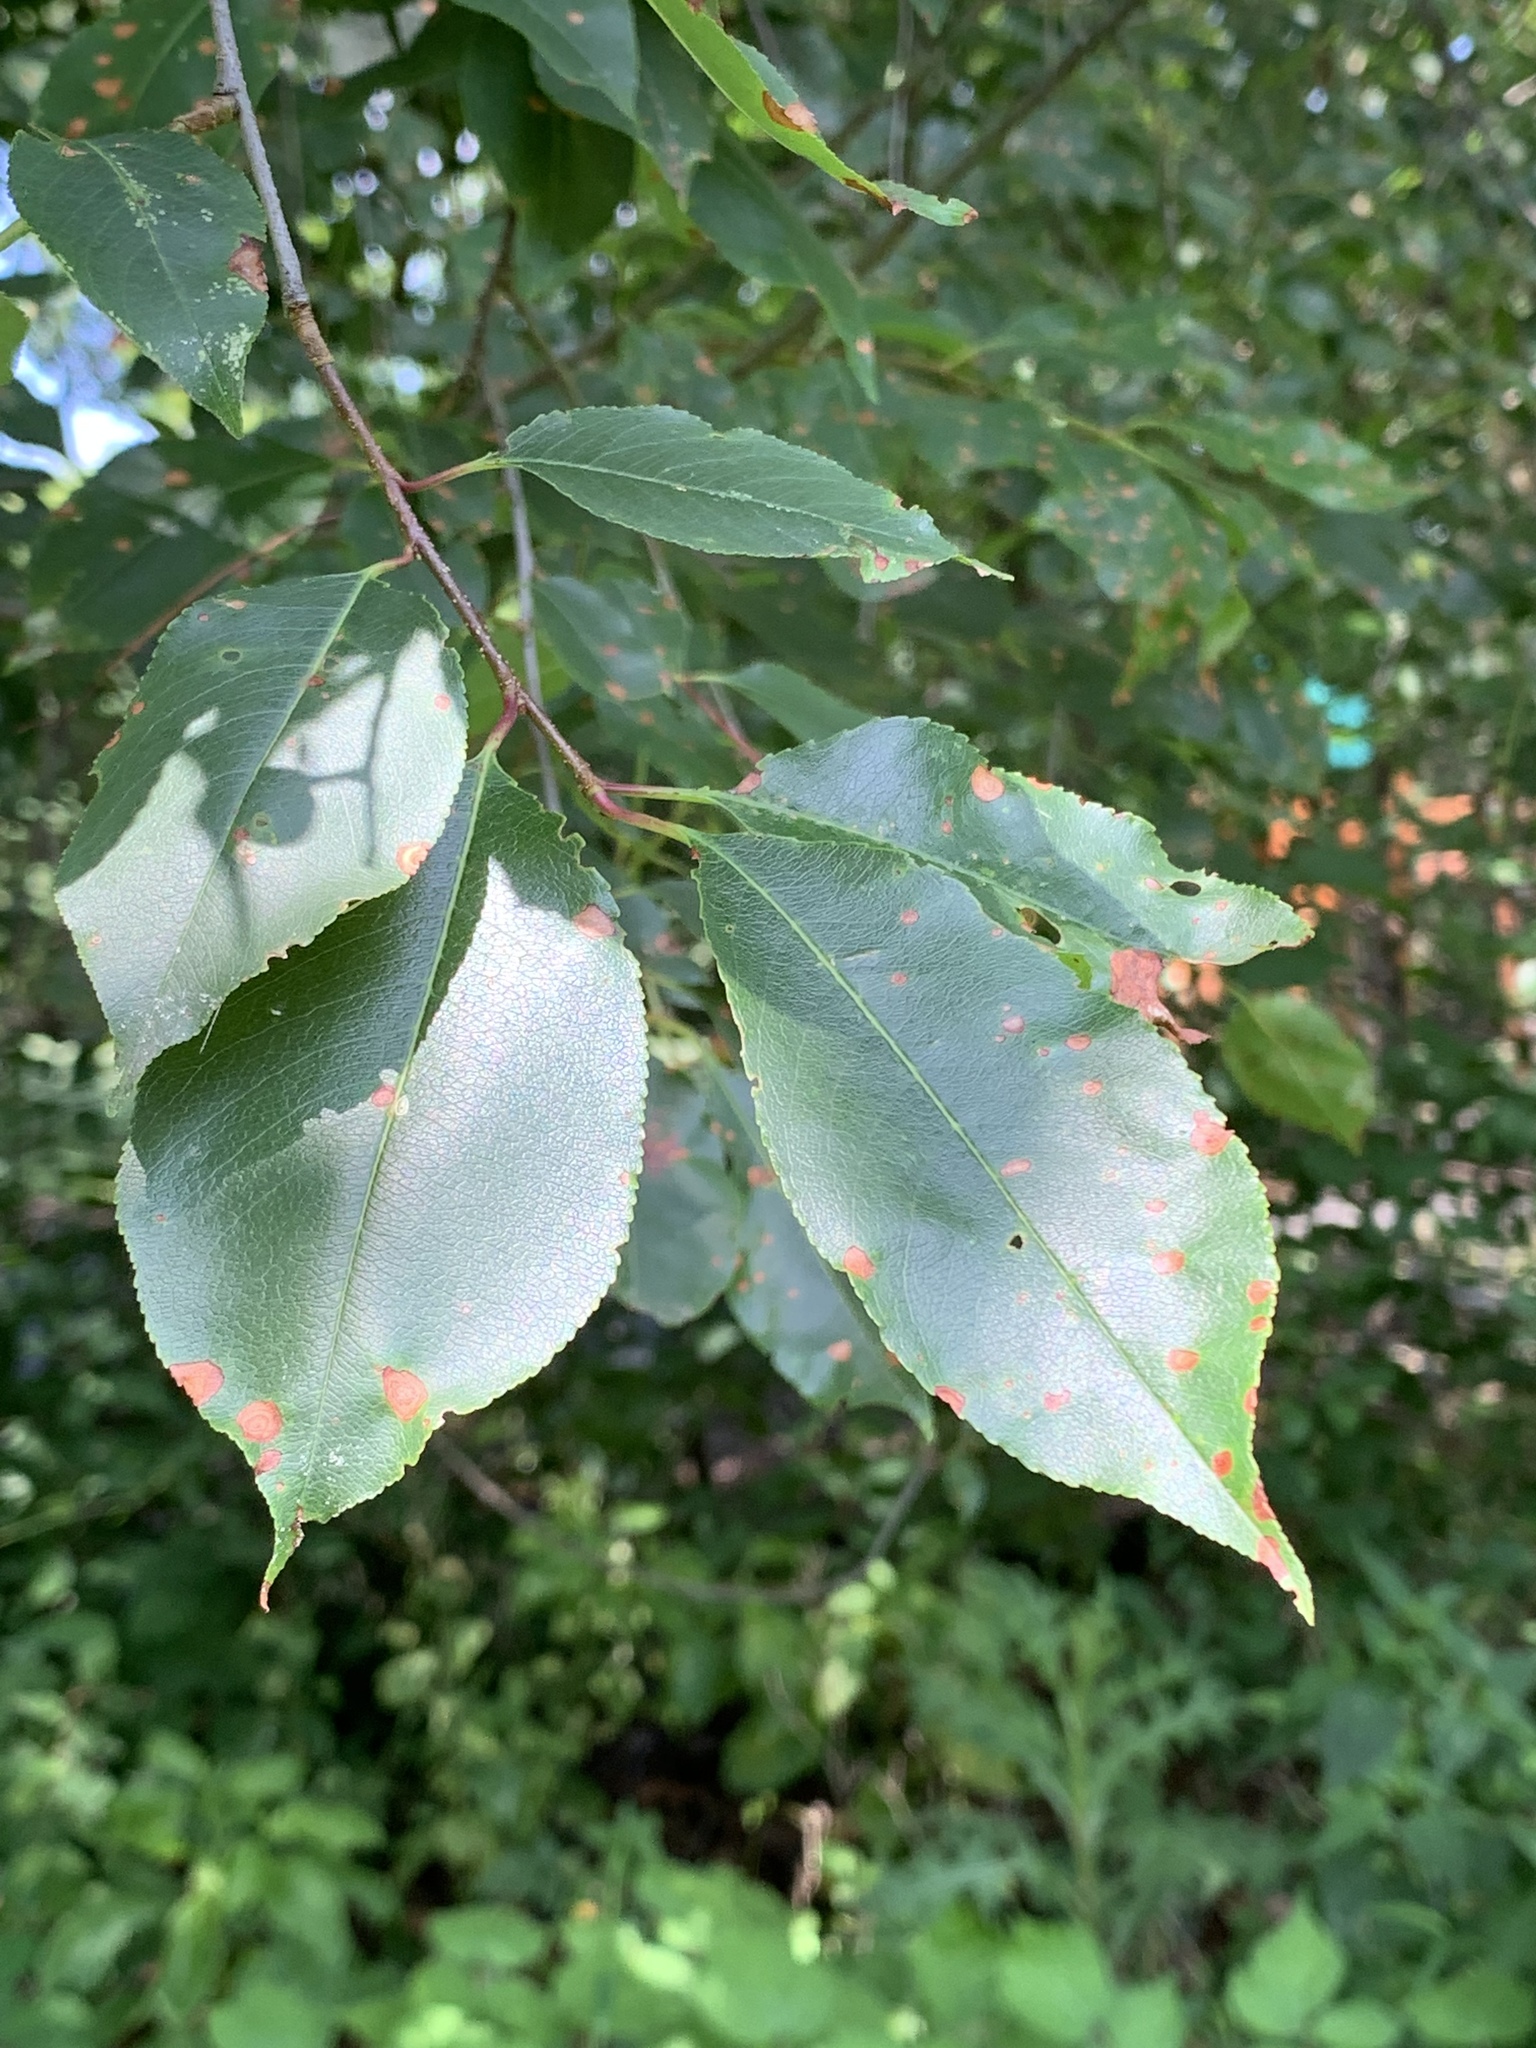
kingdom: Plantae
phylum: Tracheophyta
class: Magnoliopsida
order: Rosales
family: Rosaceae
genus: Prunus
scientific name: Prunus serotina
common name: Black cherry
